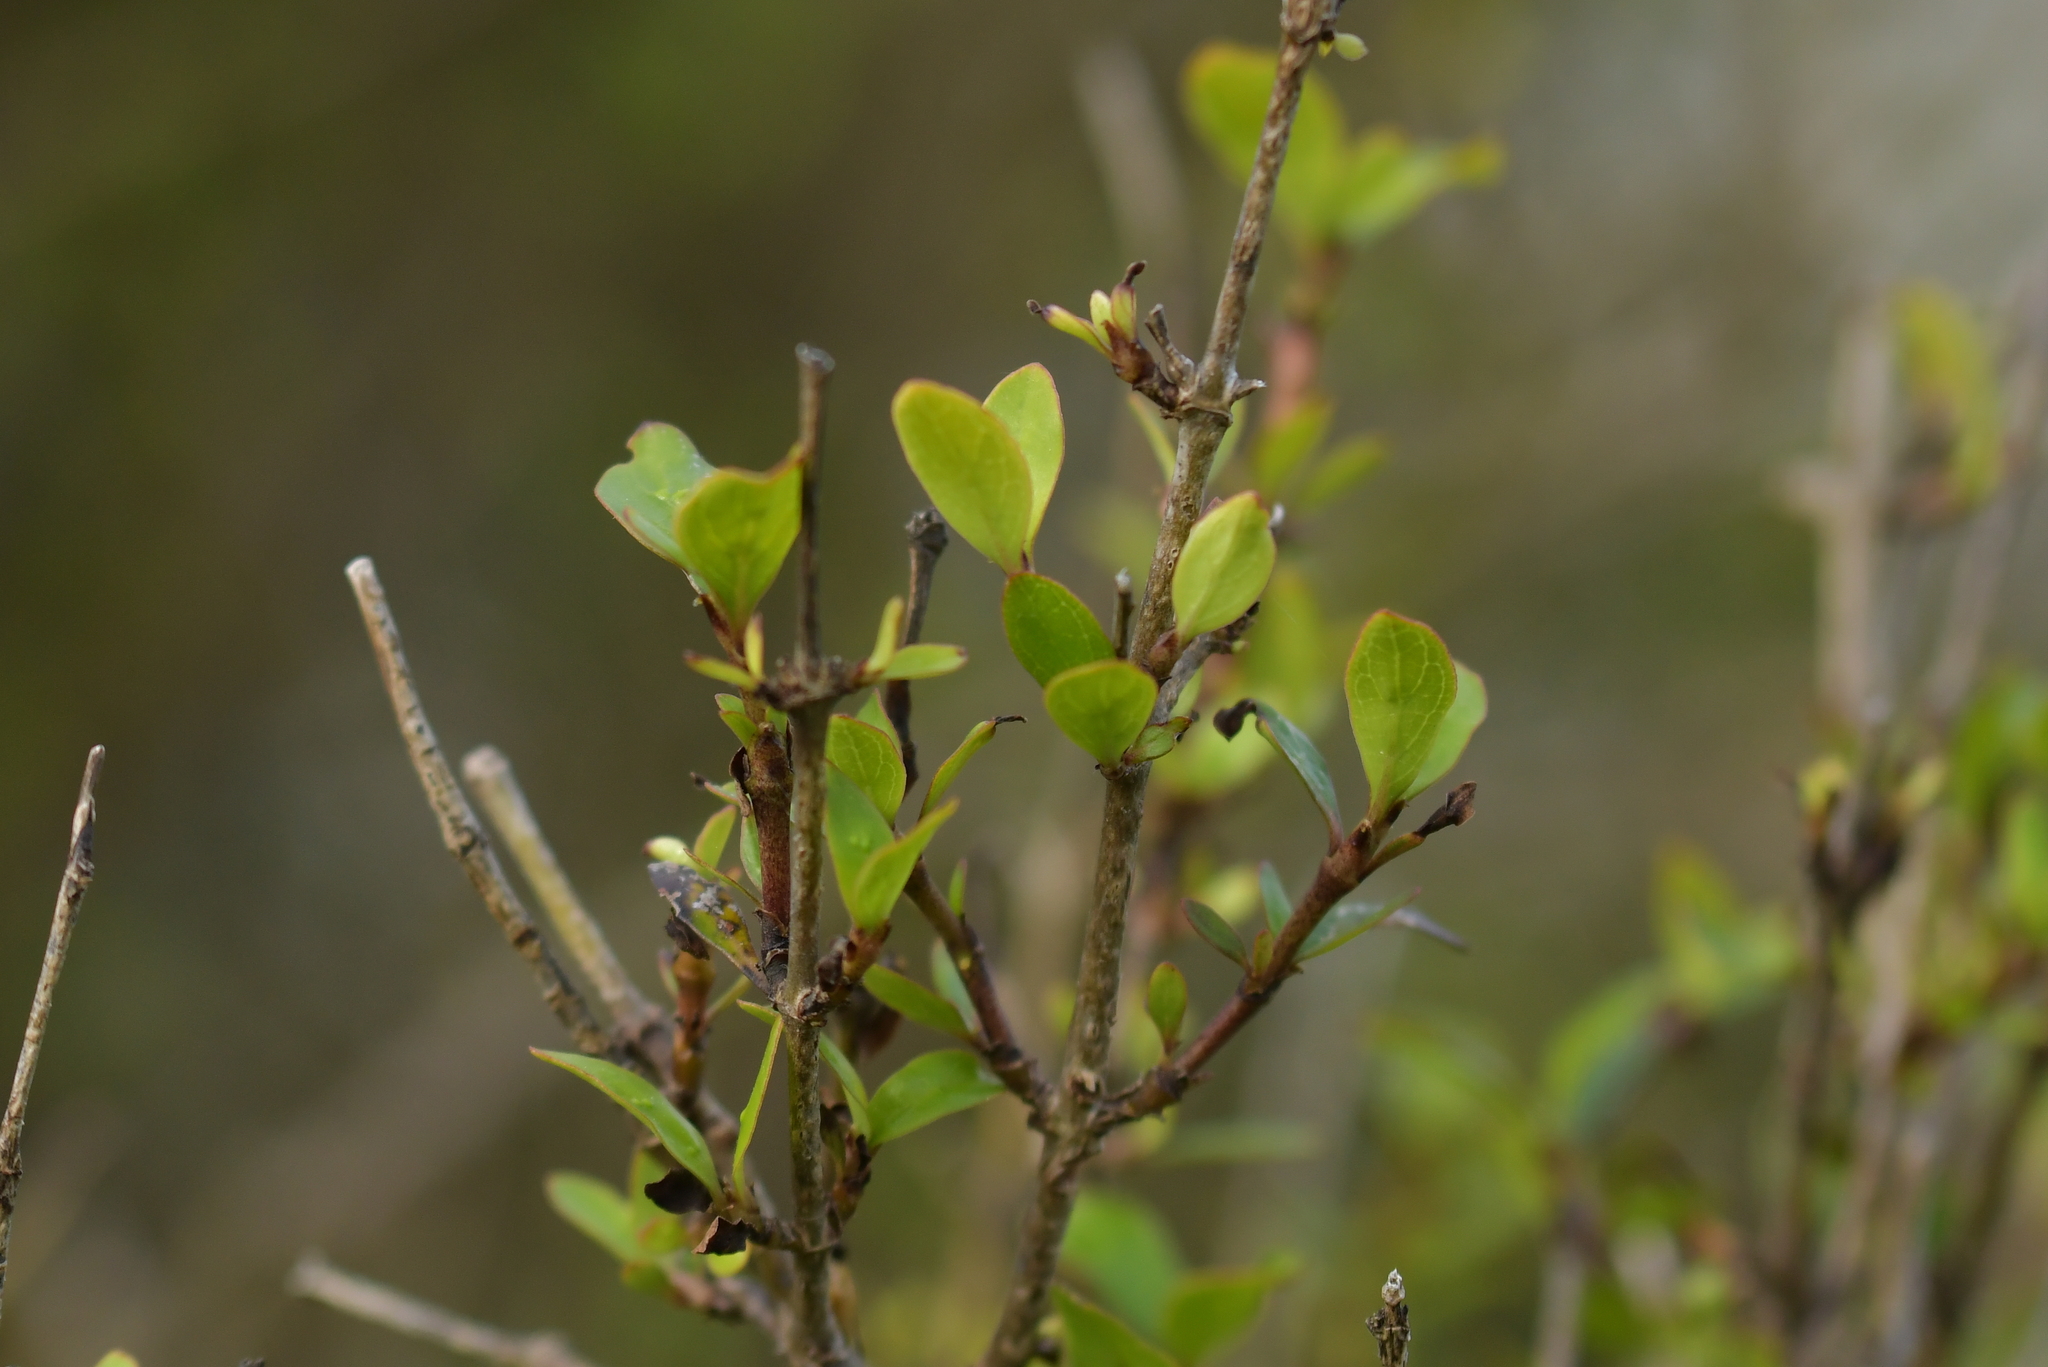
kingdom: Plantae
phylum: Tracheophyta
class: Magnoliopsida
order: Gentianales
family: Rubiaceae
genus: Coprosma
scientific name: Coprosma propinqua
